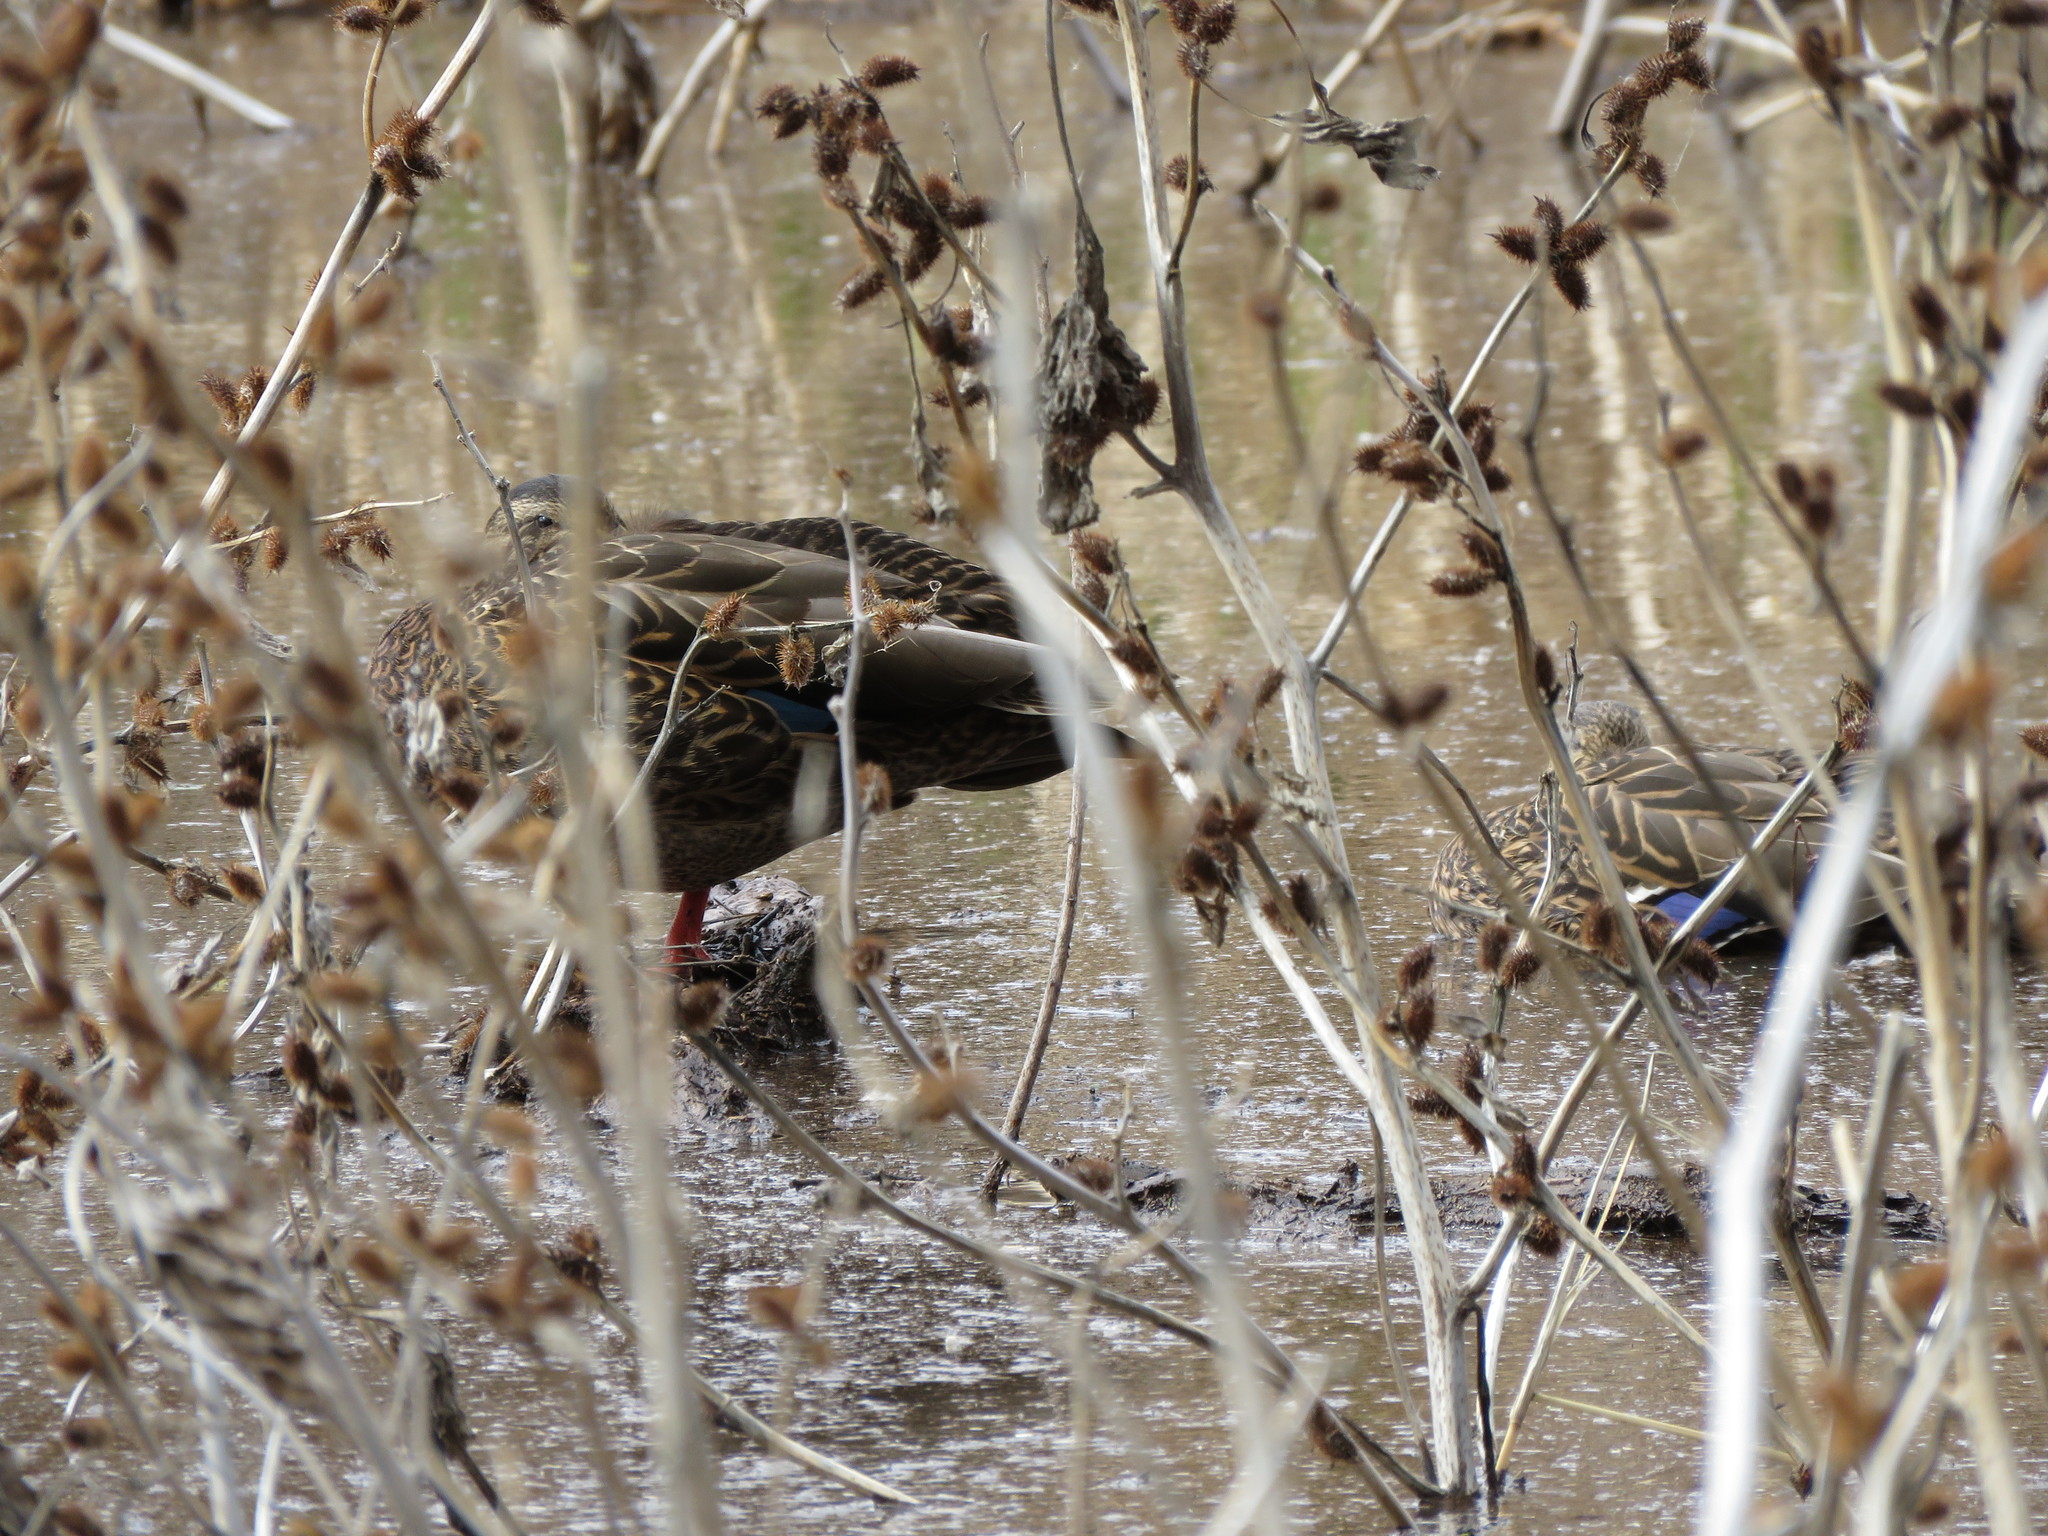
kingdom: Animalia
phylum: Chordata
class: Aves
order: Anseriformes
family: Anatidae
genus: Anas
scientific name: Anas diazi
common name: Mexican duck
